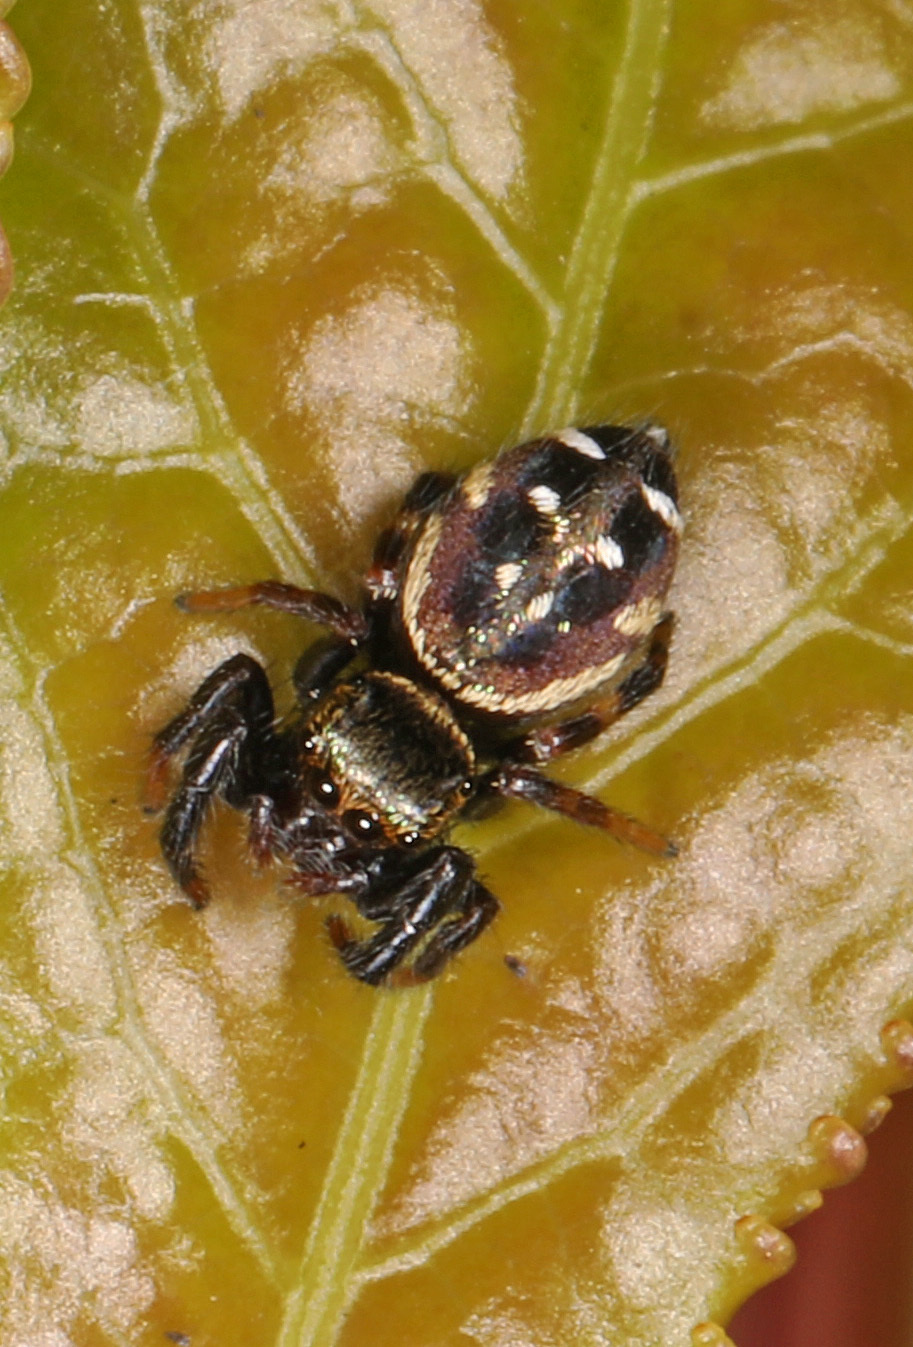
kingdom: Animalia
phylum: Arthropoda
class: Arachnida
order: Araneae
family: Salticidae
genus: Paraphidippus
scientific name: Paraphidippus aurantius
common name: Jumping spiders
